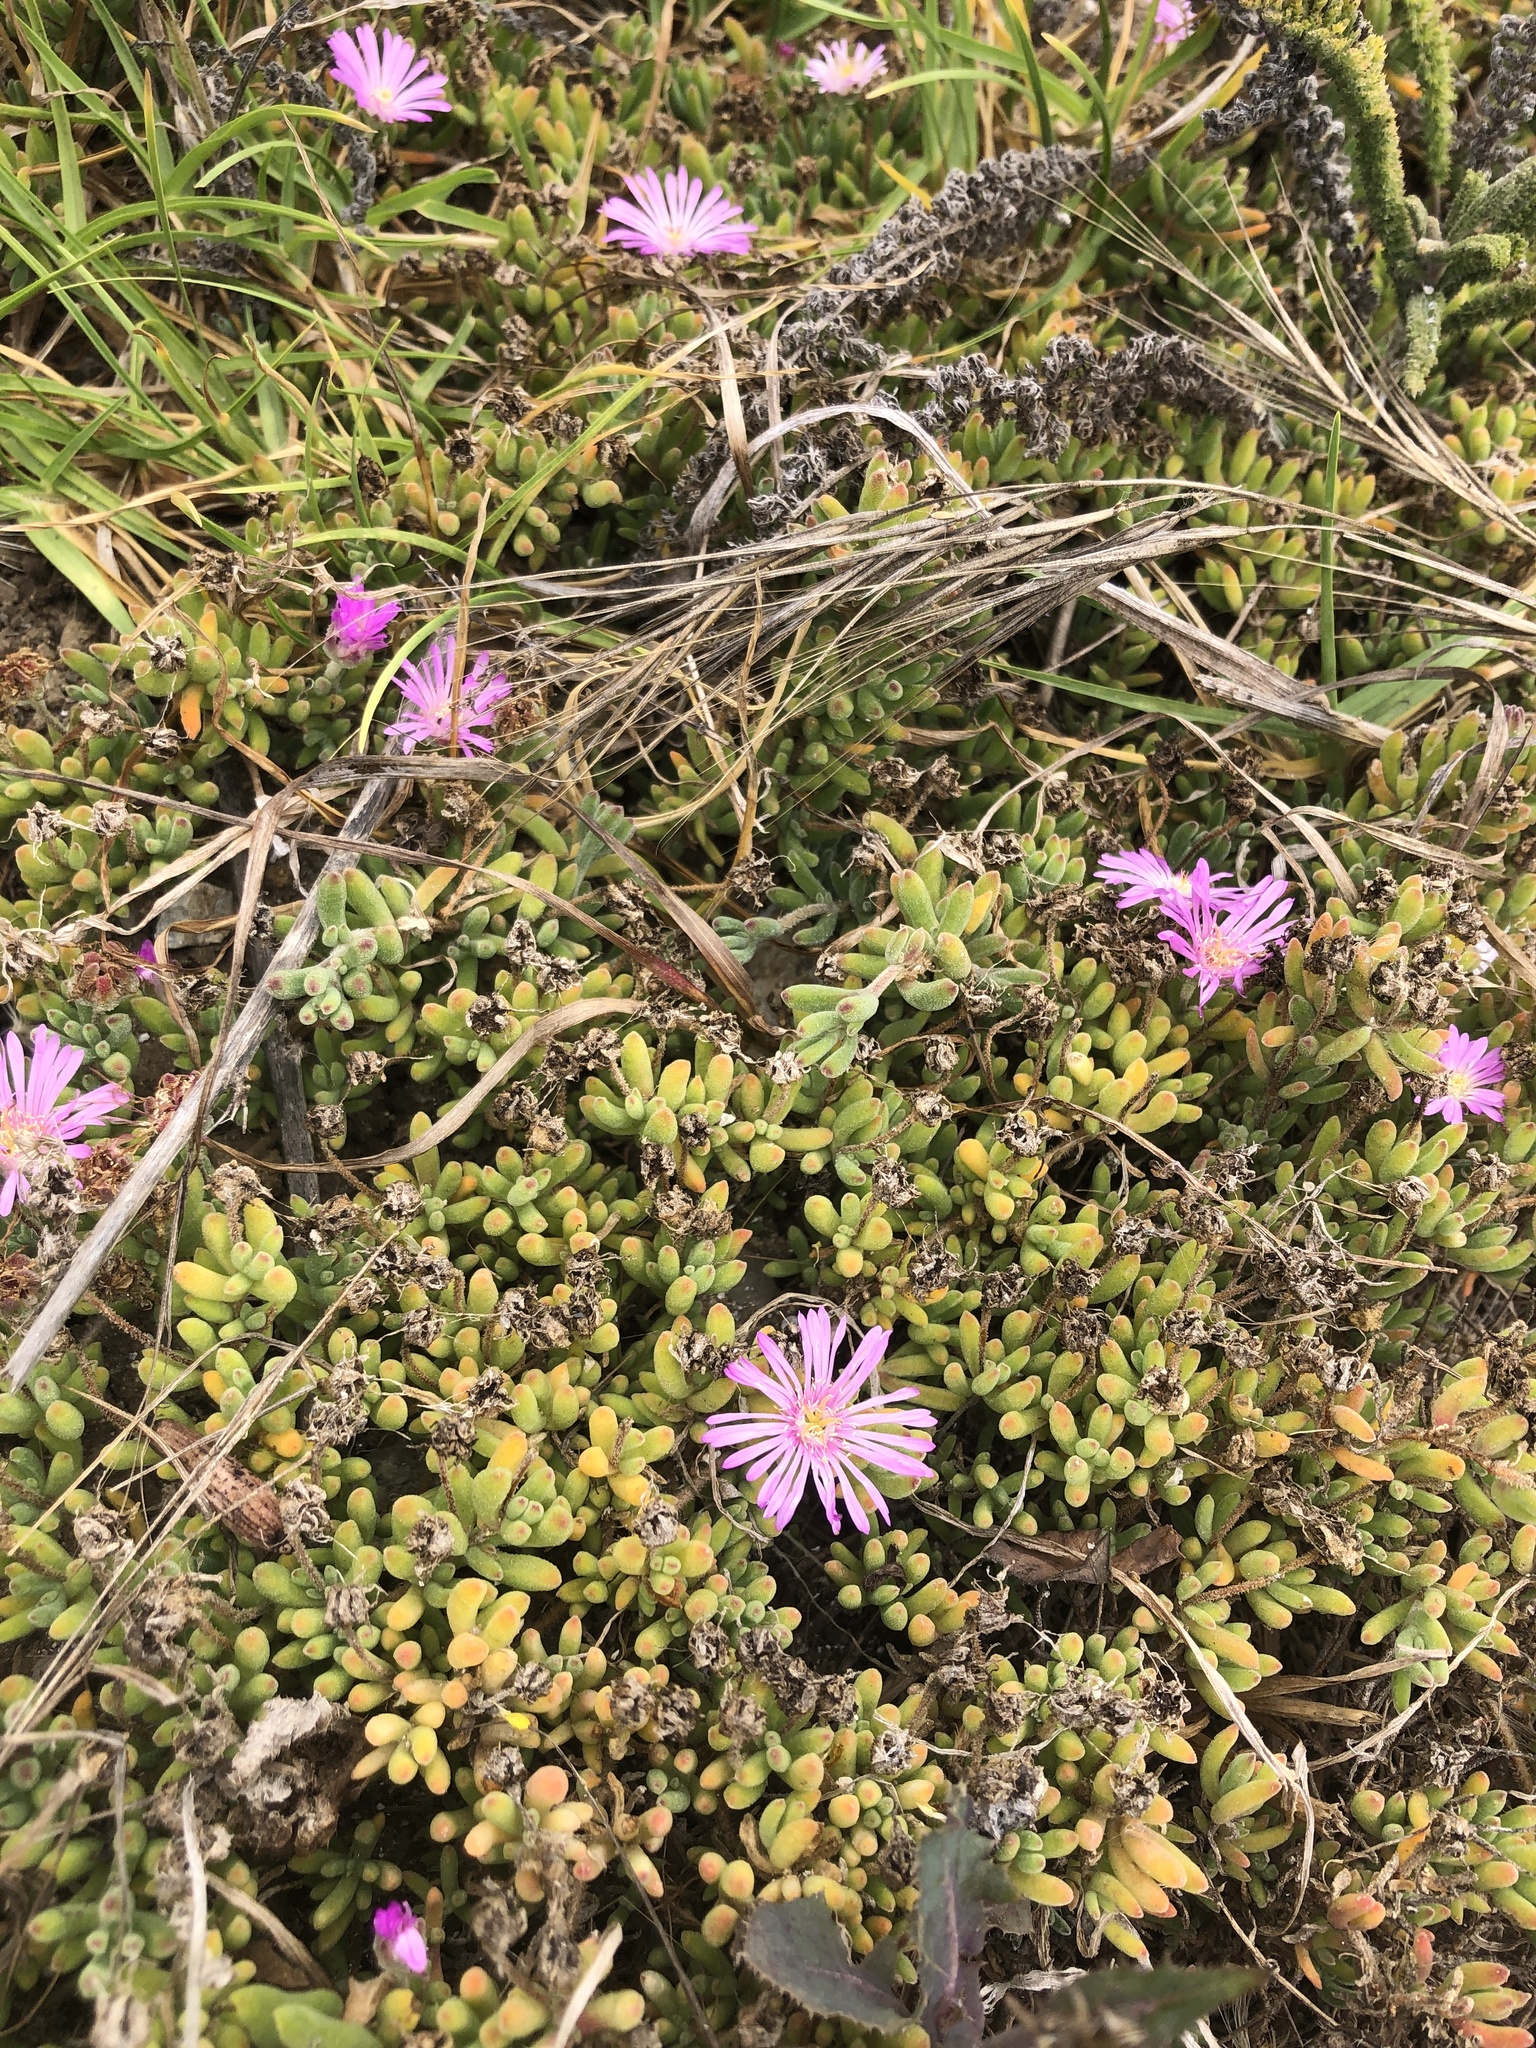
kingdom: Plantae
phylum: Tracheophyta
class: Magnoliopsida
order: Caryophyllales
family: Aizoaceae
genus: Drosanthemum
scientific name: Drosanthemum floribundum
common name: Pale dewplant
